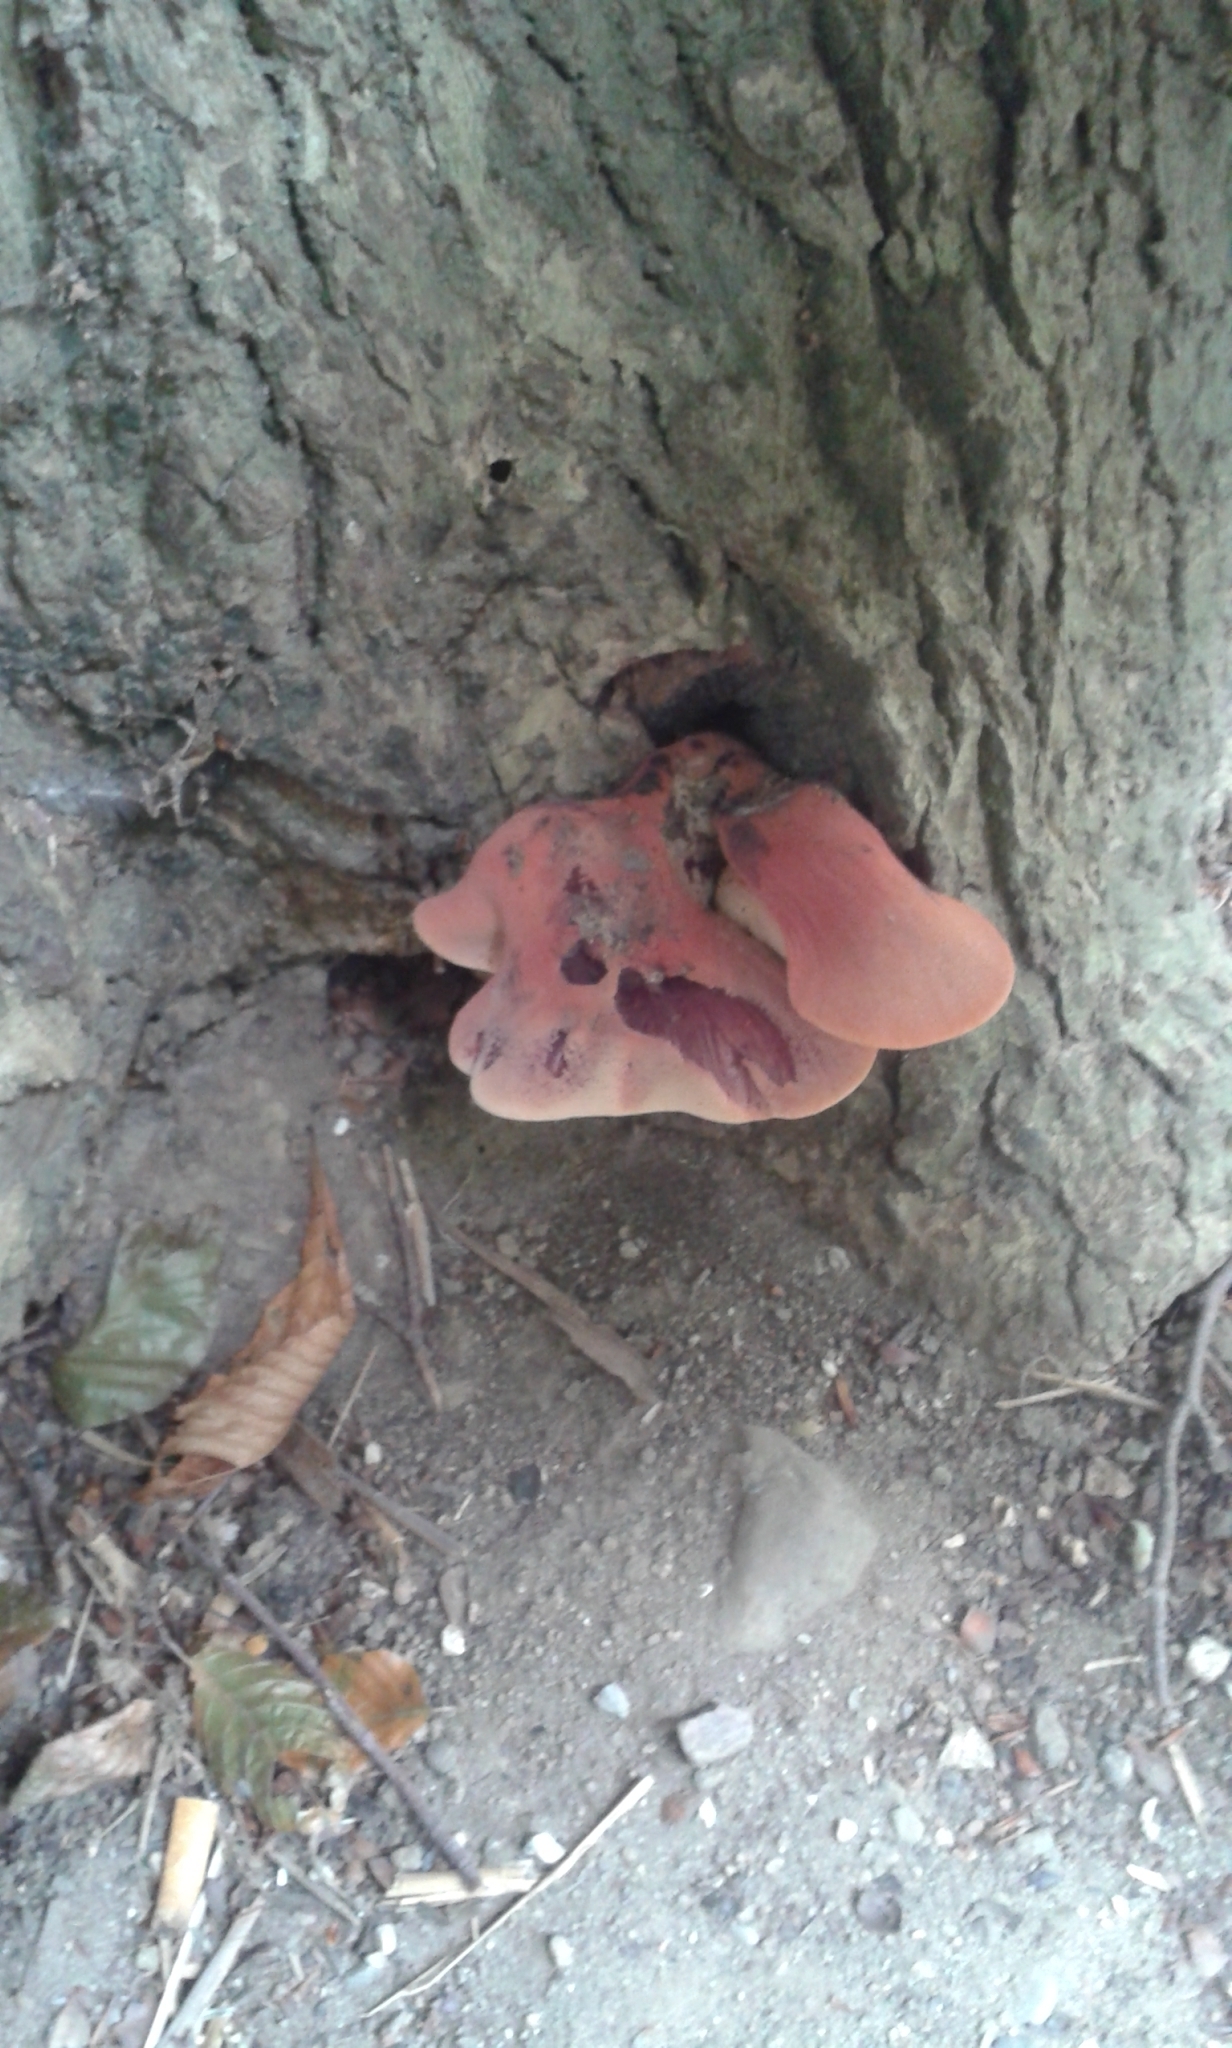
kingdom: Fungi
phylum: Basidiomycota
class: Agaricomycetes
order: Agaricales
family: Fistulinaceae
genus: Fistulina
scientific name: Fistulina hepatica
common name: Beef-steak fungus
